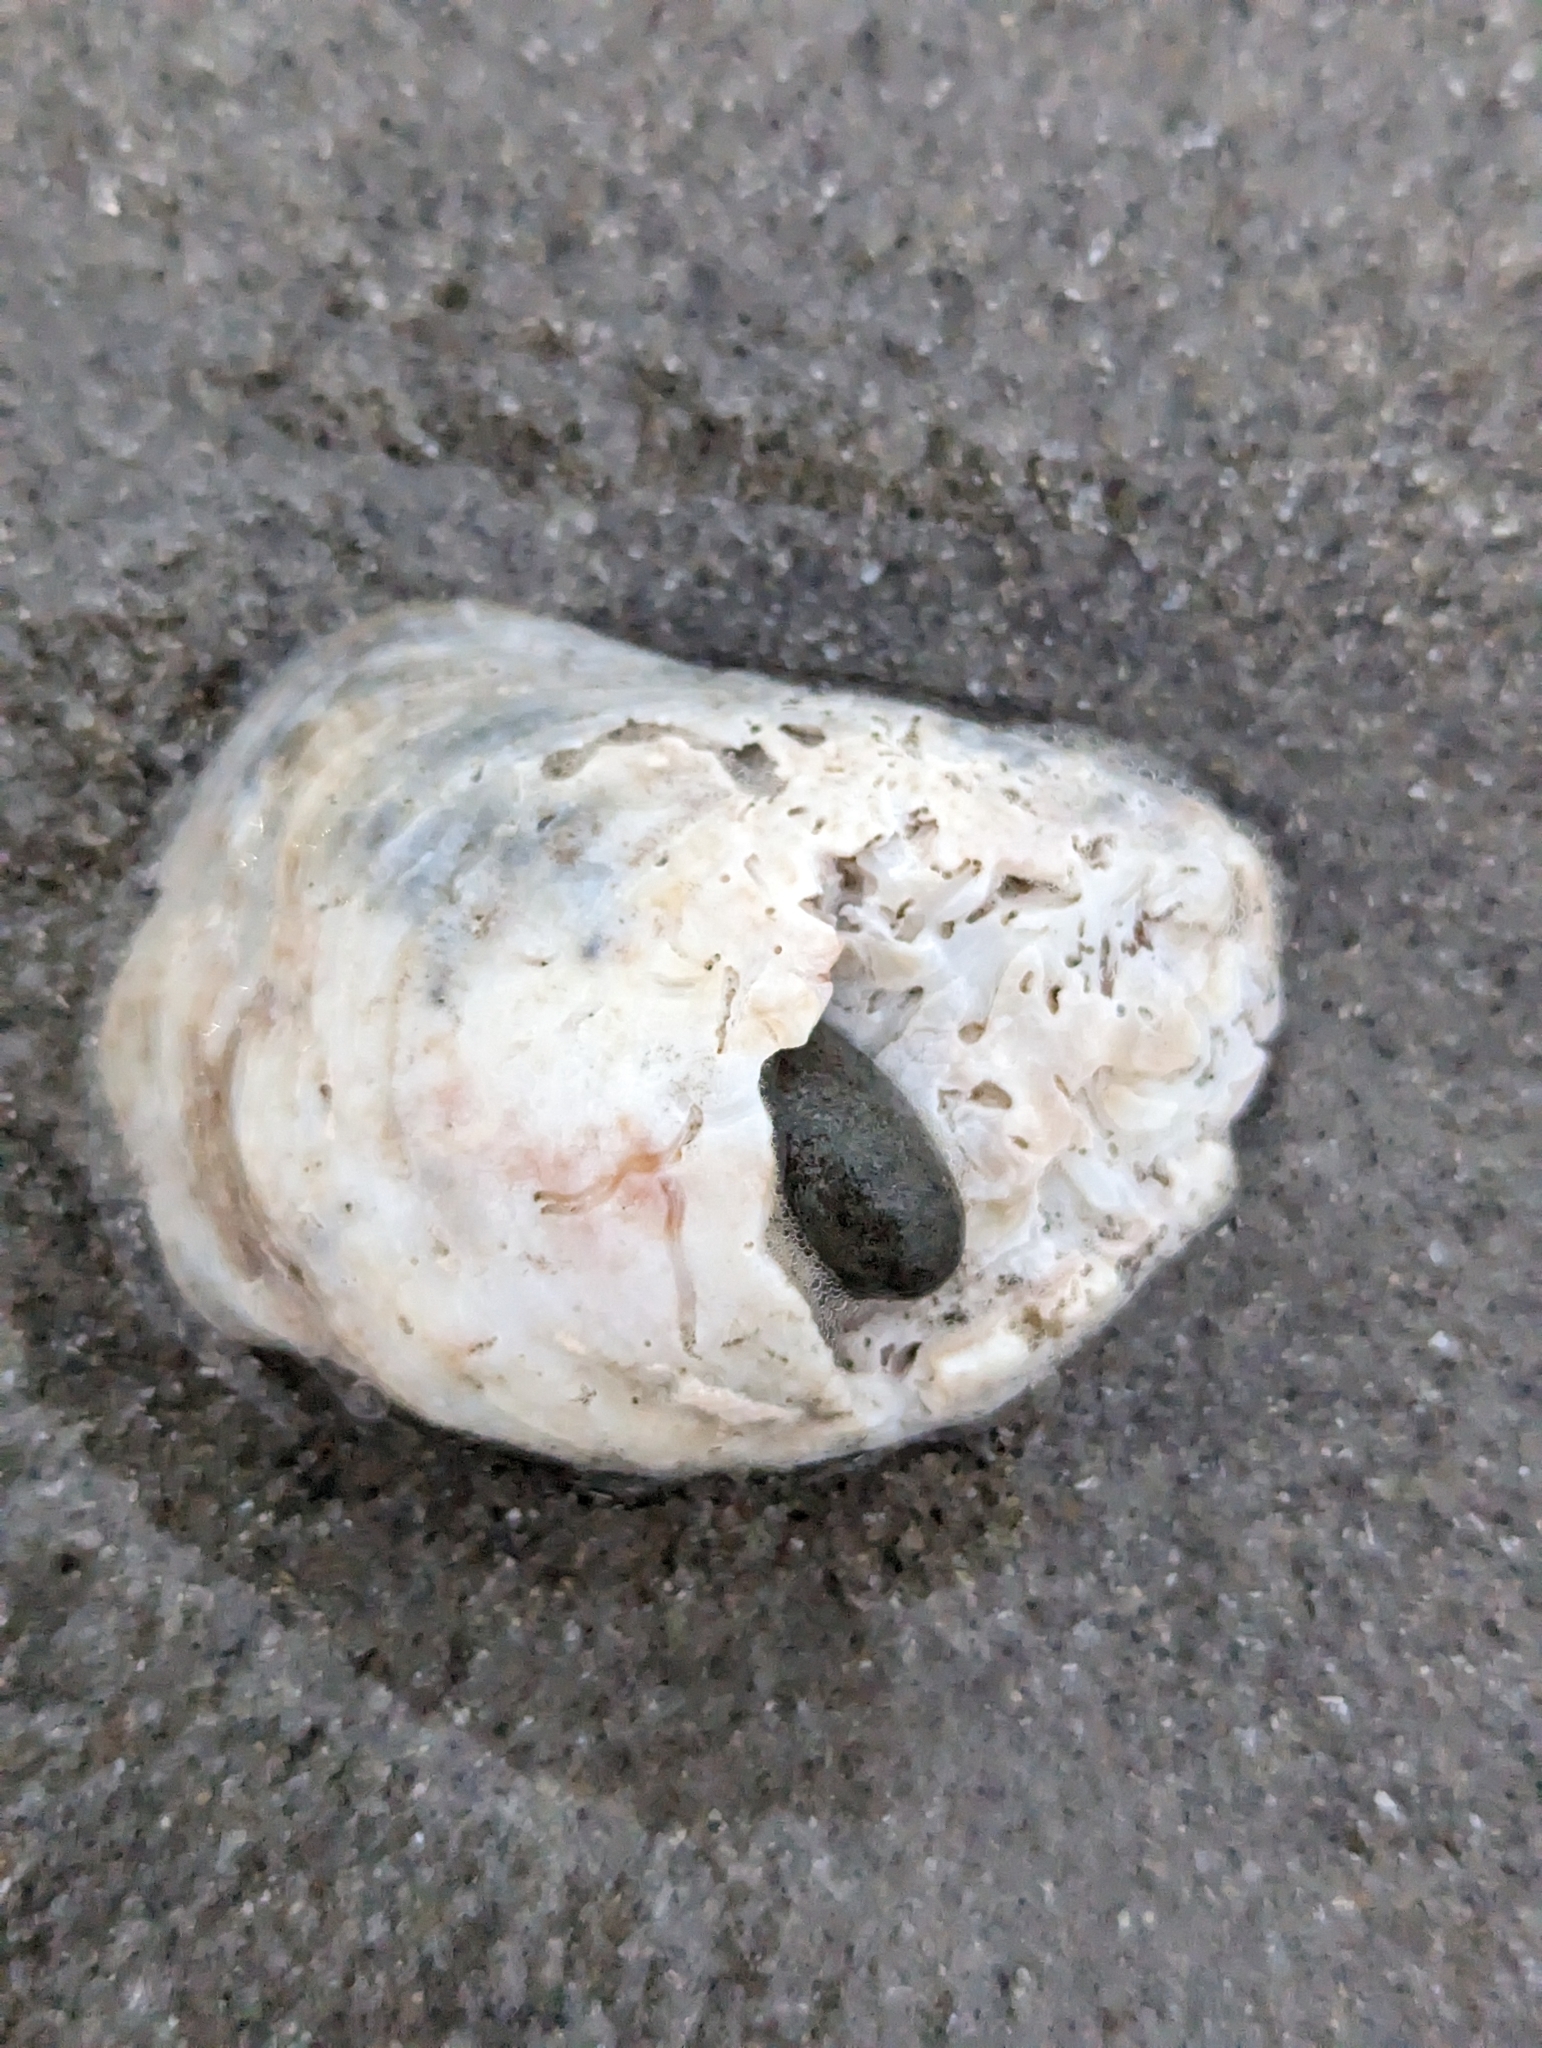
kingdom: Animalia
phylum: Mollusca
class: Gastropoda
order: Littorinimorpha
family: Calyptraeidae
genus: Crepidula
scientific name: Crepidula fornicata
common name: Slipper limpet
